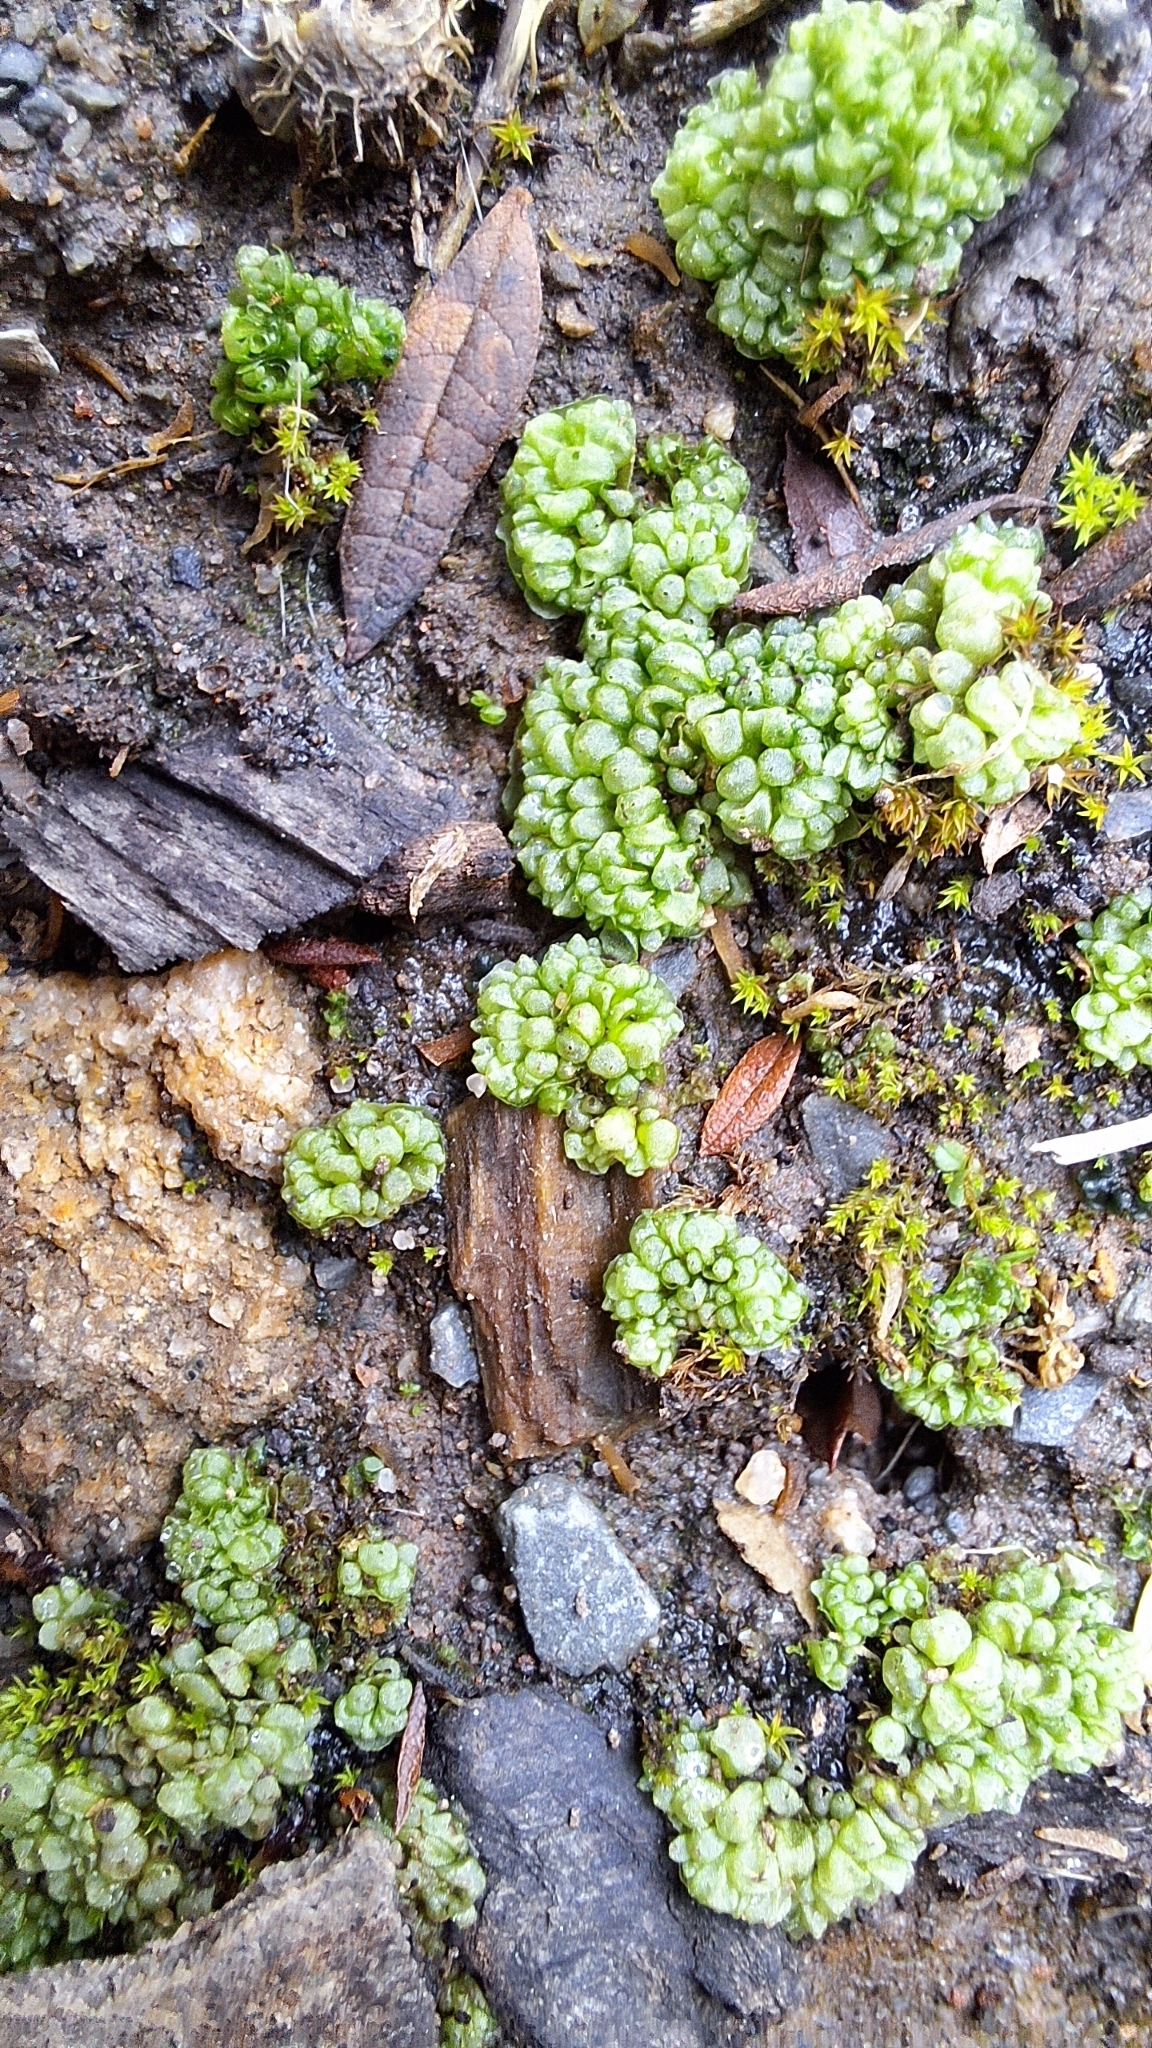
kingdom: Plantae
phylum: Marchantiophyta
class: Marchantiopsida
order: Sphaerocarpales
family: Sphaerocarpaceae
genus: Sphaerocarpos
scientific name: Sphaerocarpos texanus
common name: Texas balloonwort
